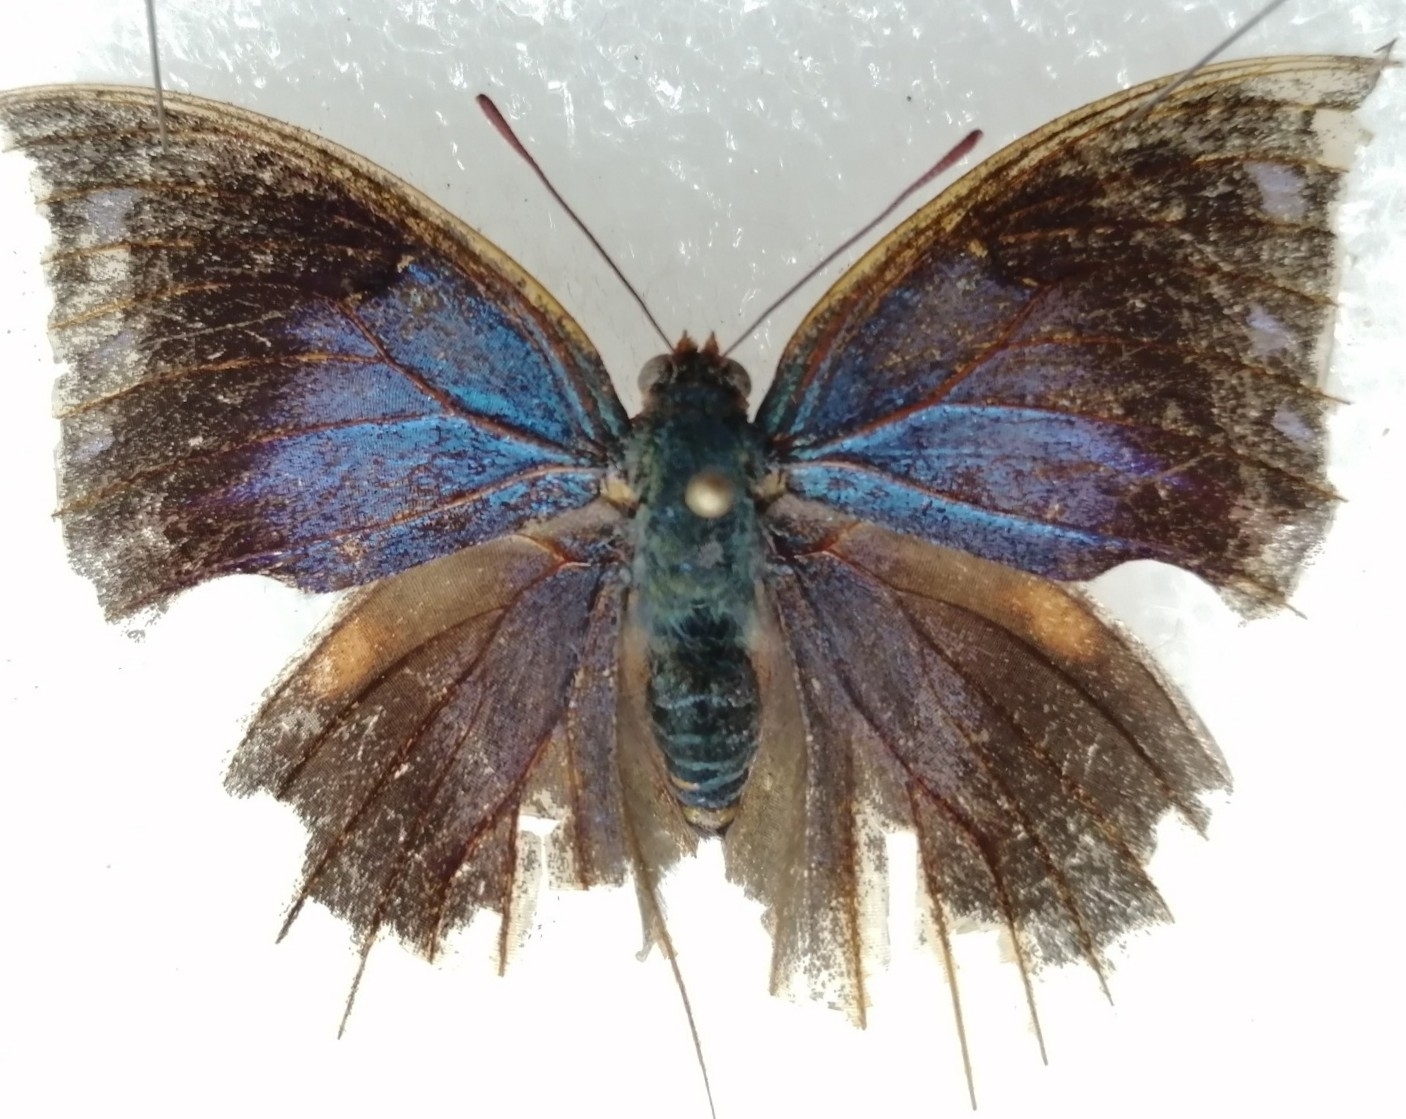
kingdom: Animalia
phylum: Arthropoda
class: Insecta
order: Lepidoptera
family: Nymphalidae
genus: Anaea
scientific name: Anaea pithyusa
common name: Pale-spotted leafwing
